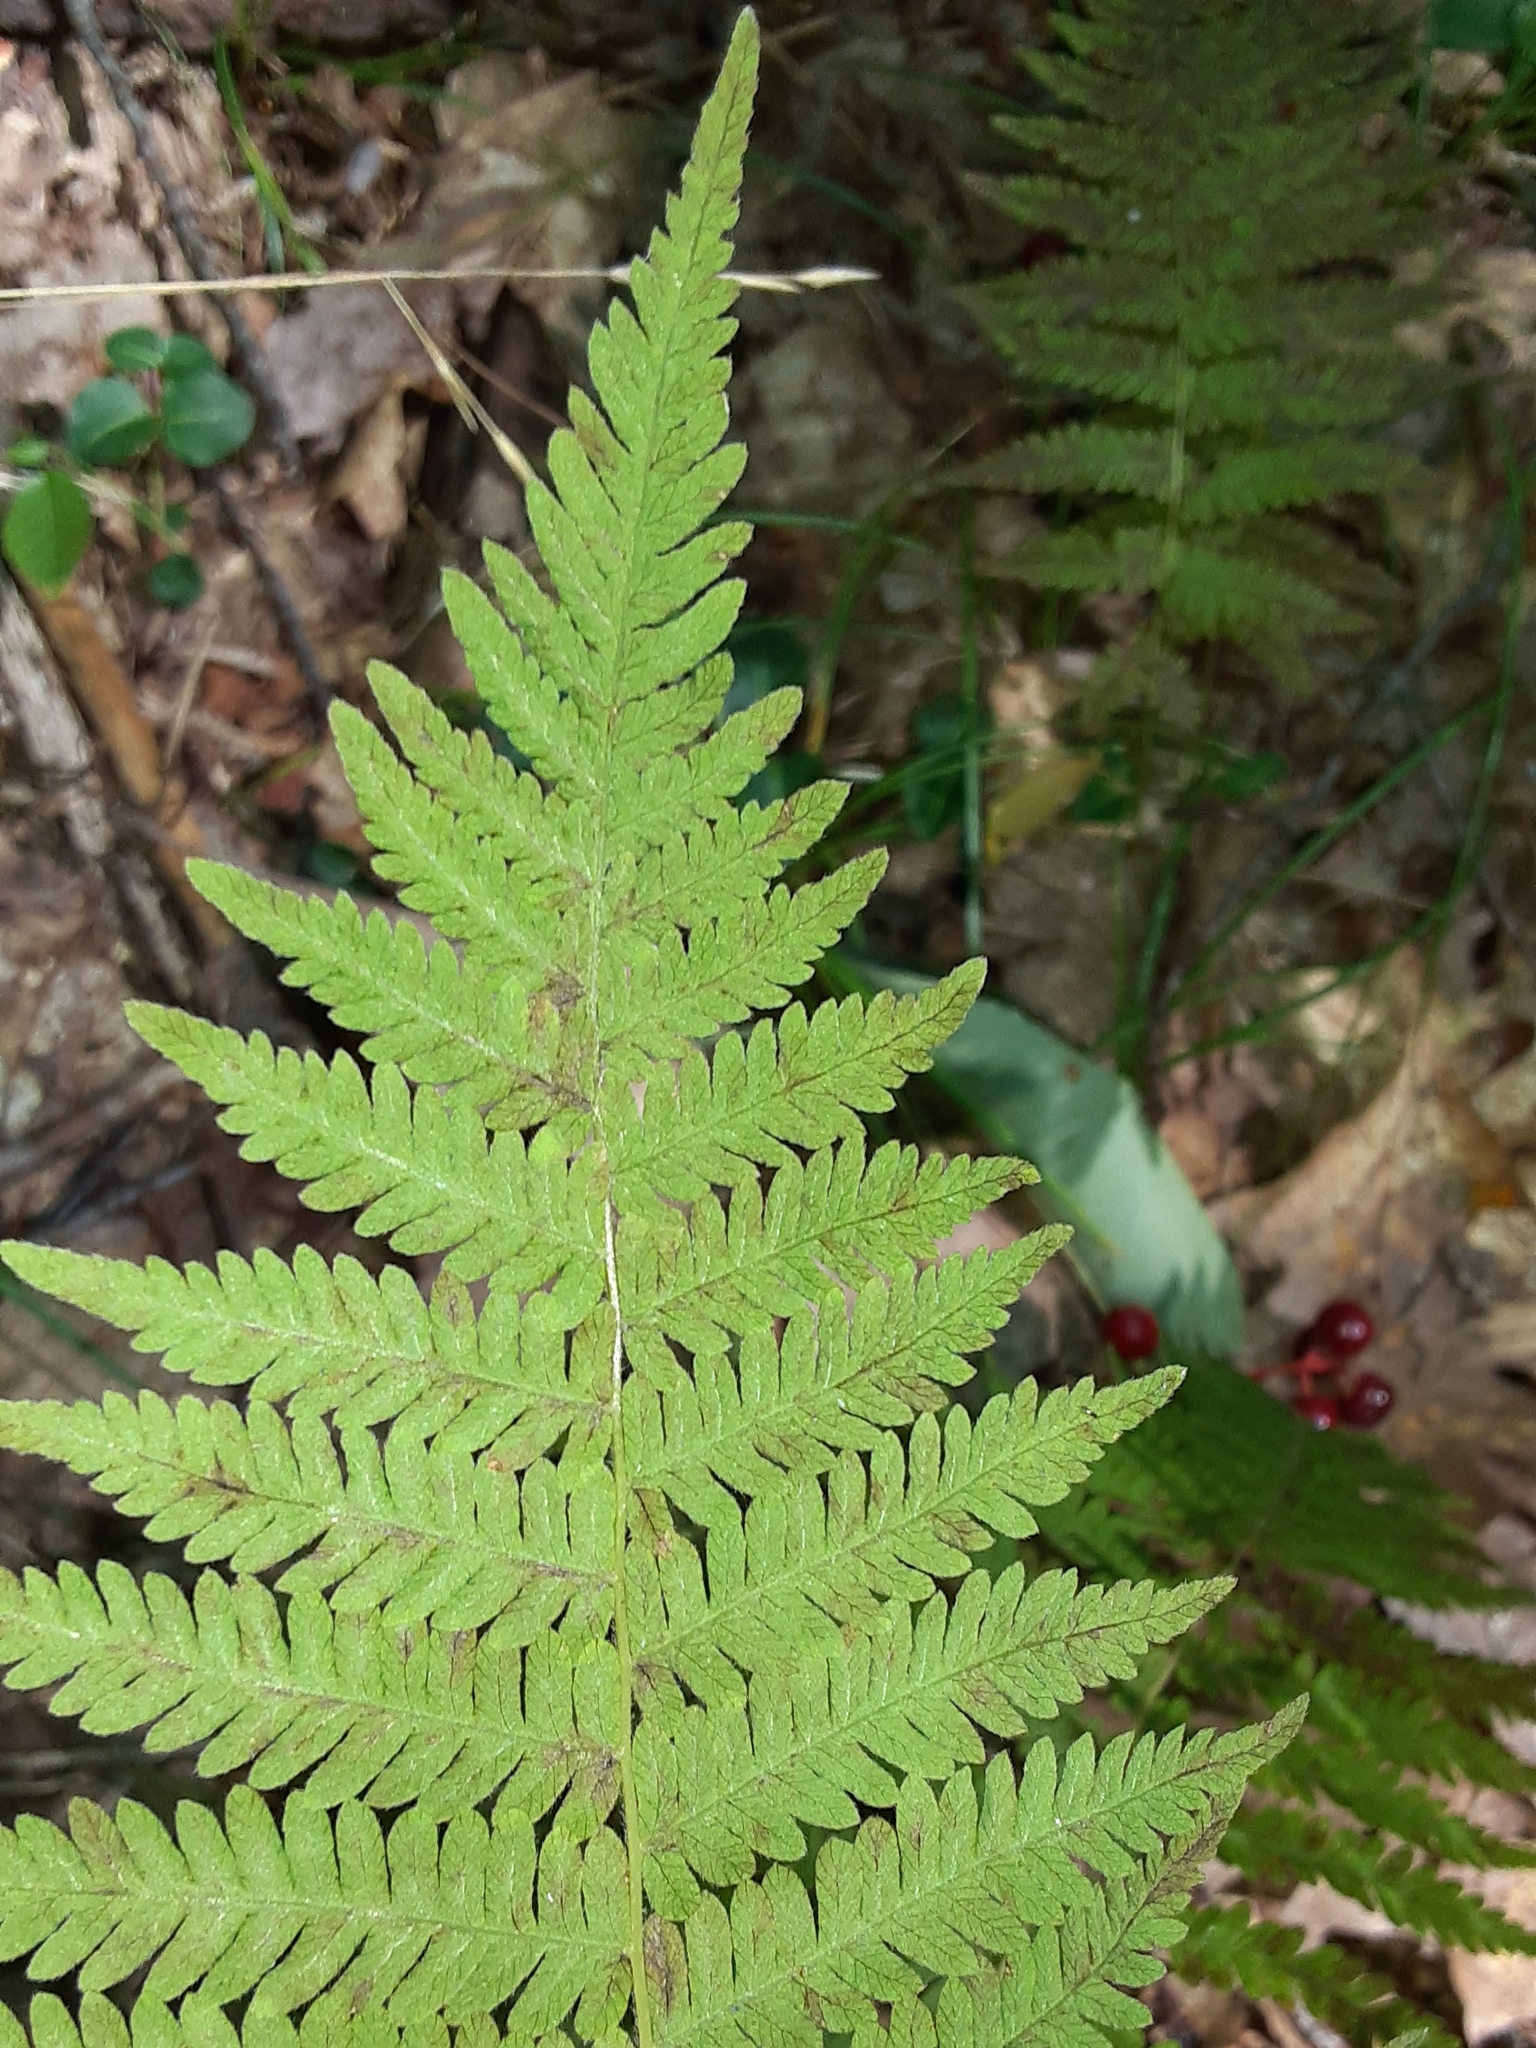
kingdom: Plantae
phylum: Tracheophyta
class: Polypodiopsida
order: Polypodiales
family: Thelypteridaceae
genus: Amauropelta
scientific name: Amauropelta noveboracensis
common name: New york fern
